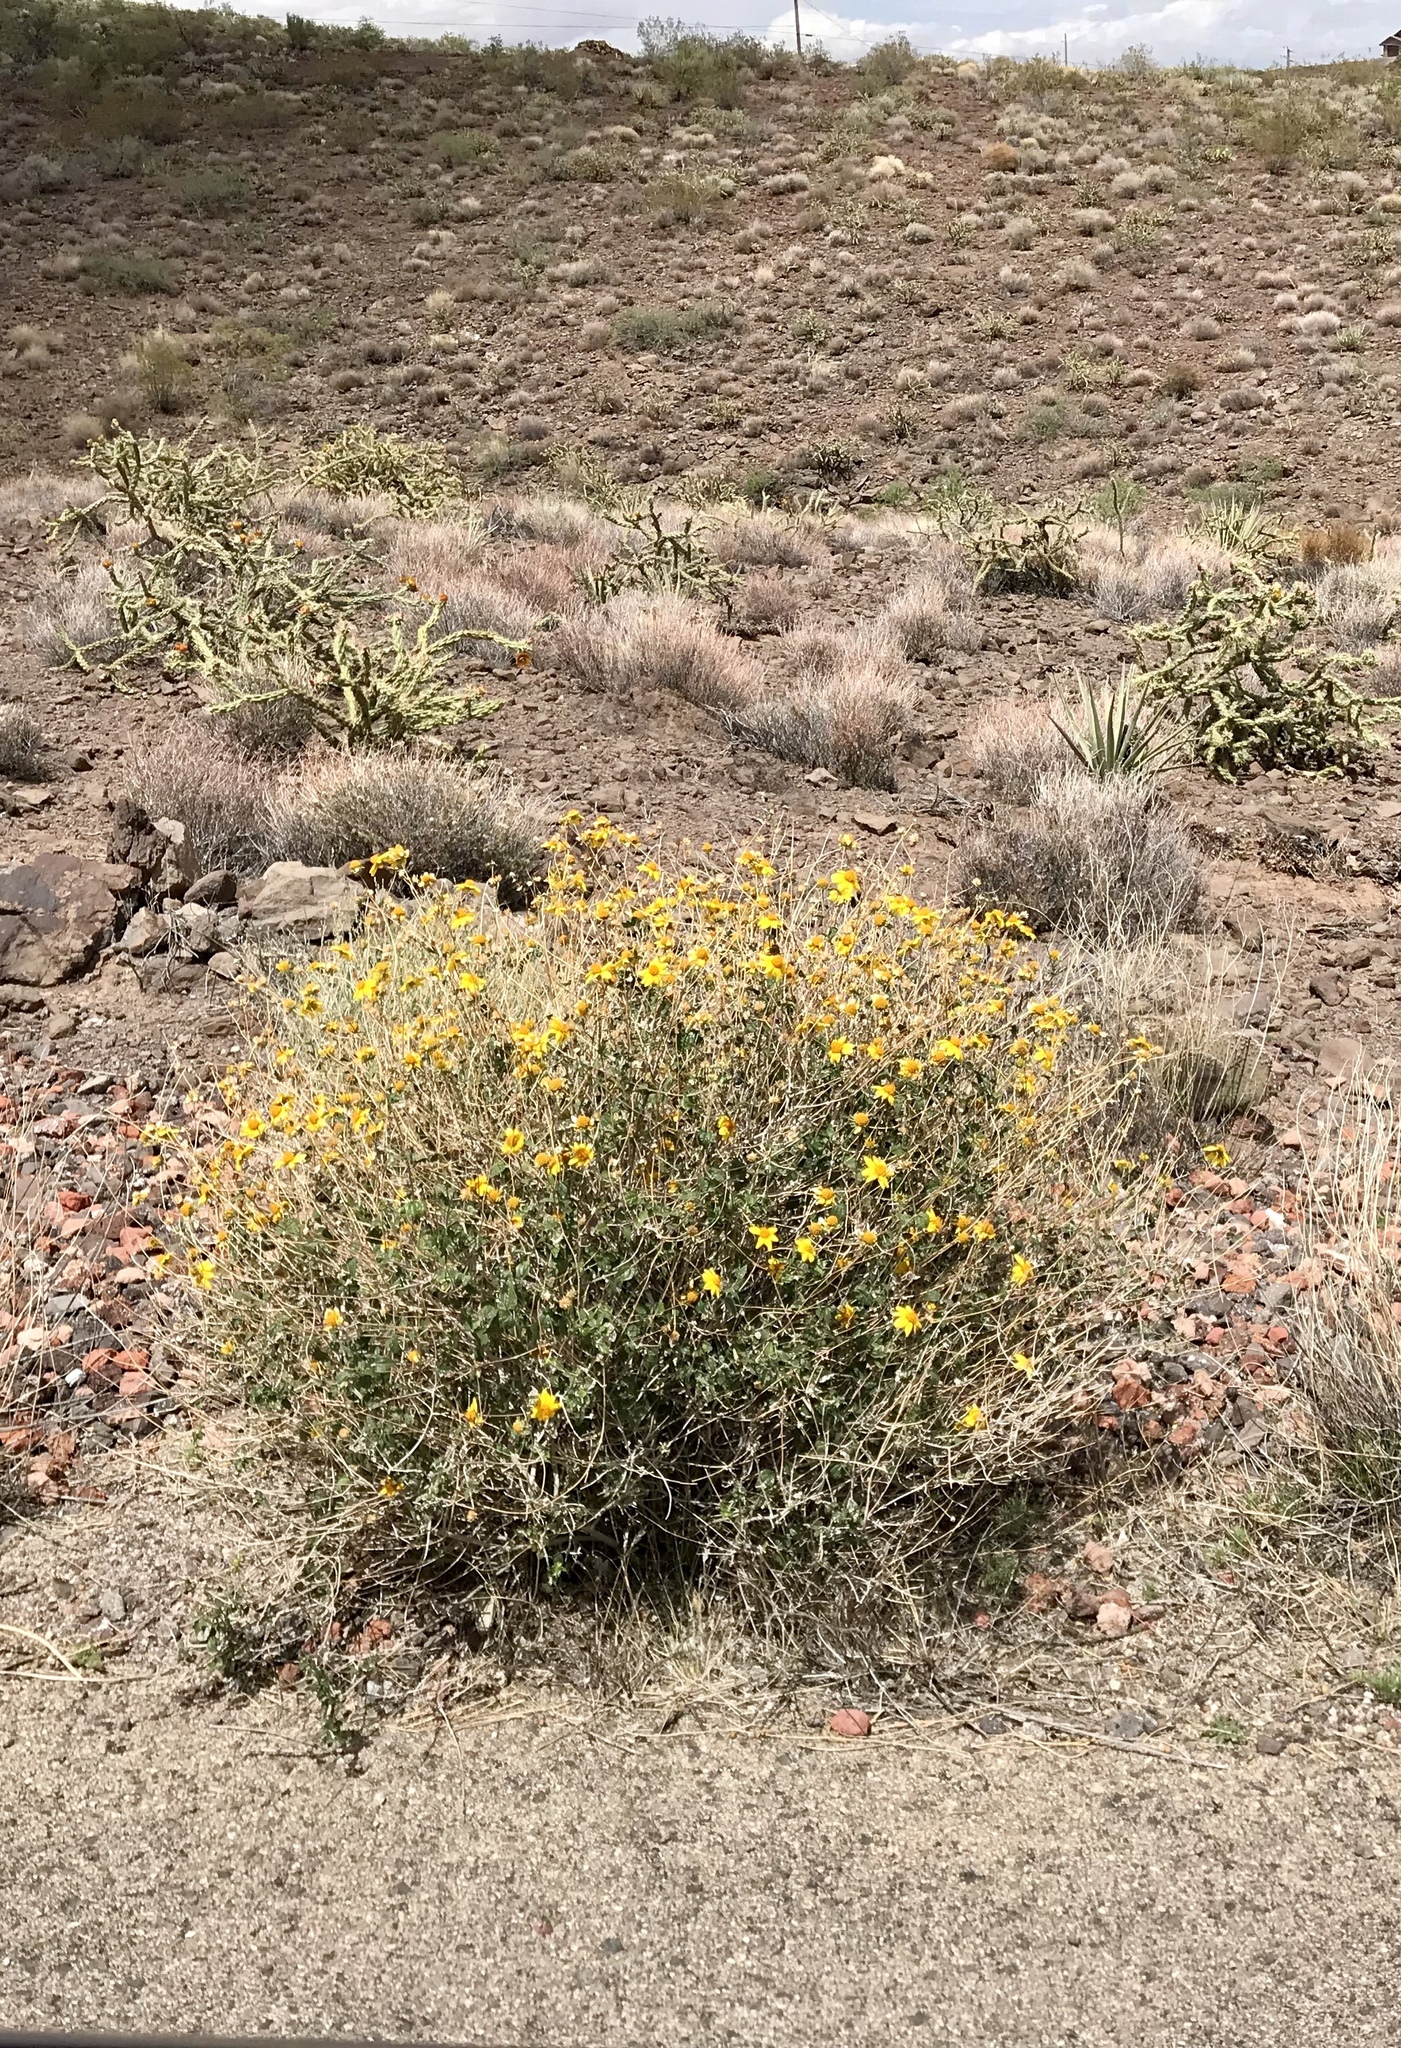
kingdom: Plantae
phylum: Tracheophyta
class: Magnoliopsida
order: Asterales
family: Asteraceae
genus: Bahiopsis
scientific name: Bahiopsis parishii
